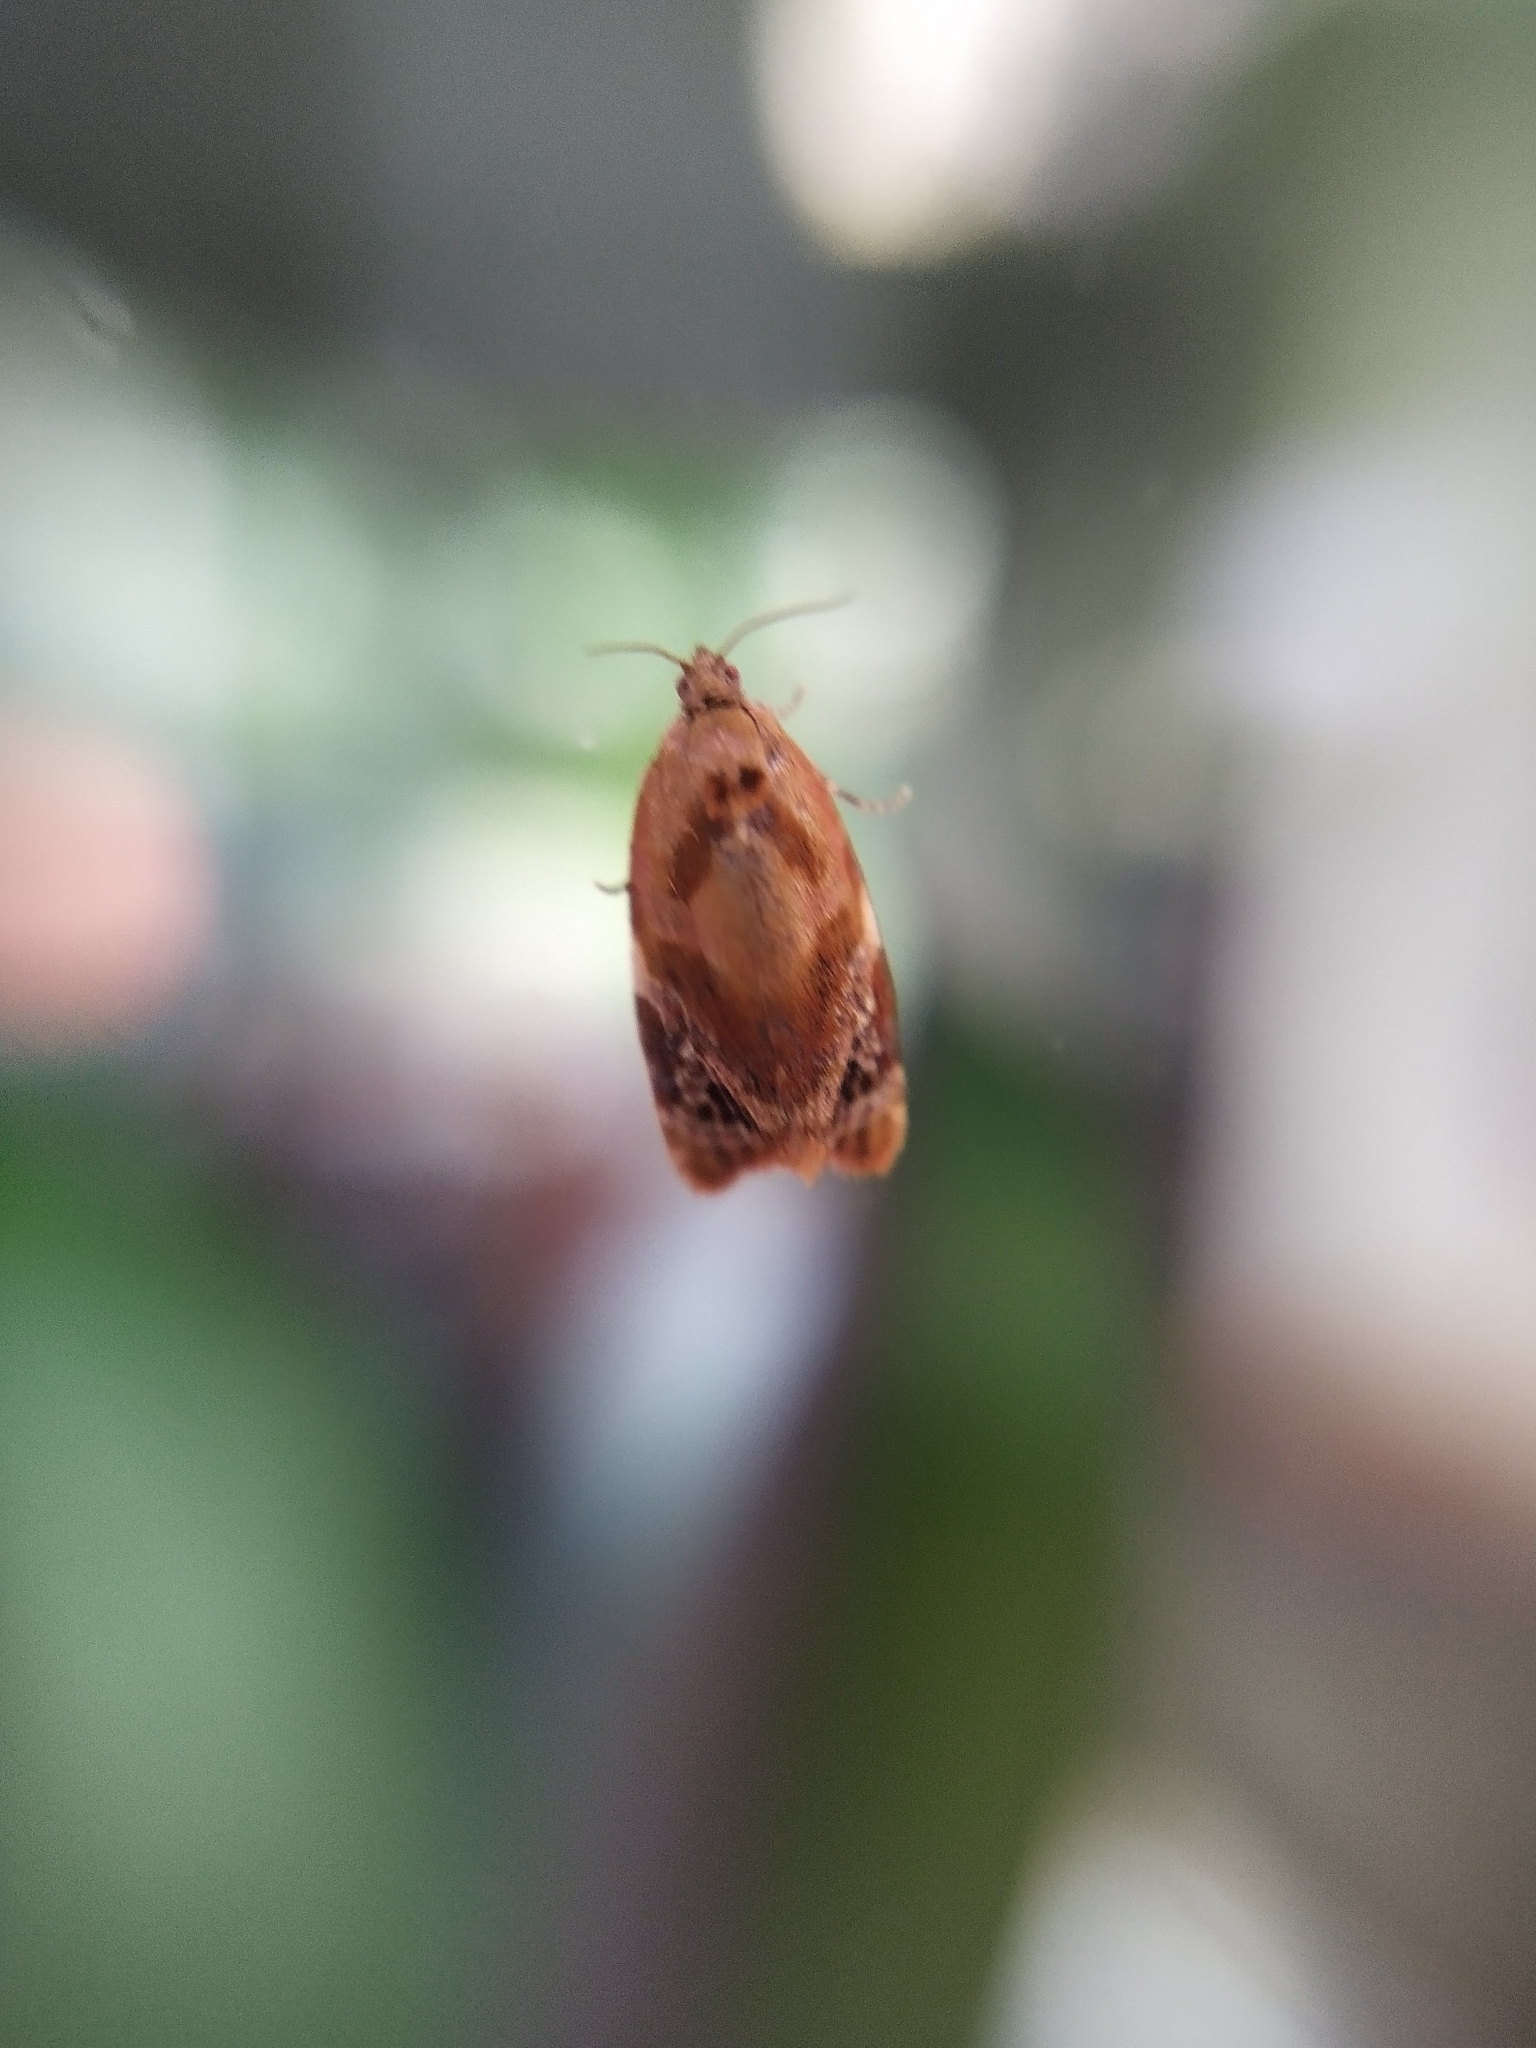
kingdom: Animalia
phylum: Arthropoda
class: Insecta
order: Lepidoptera
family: Tortricidae
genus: Ditula
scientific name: Ditula angustiorana
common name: Red-barred tortrix
